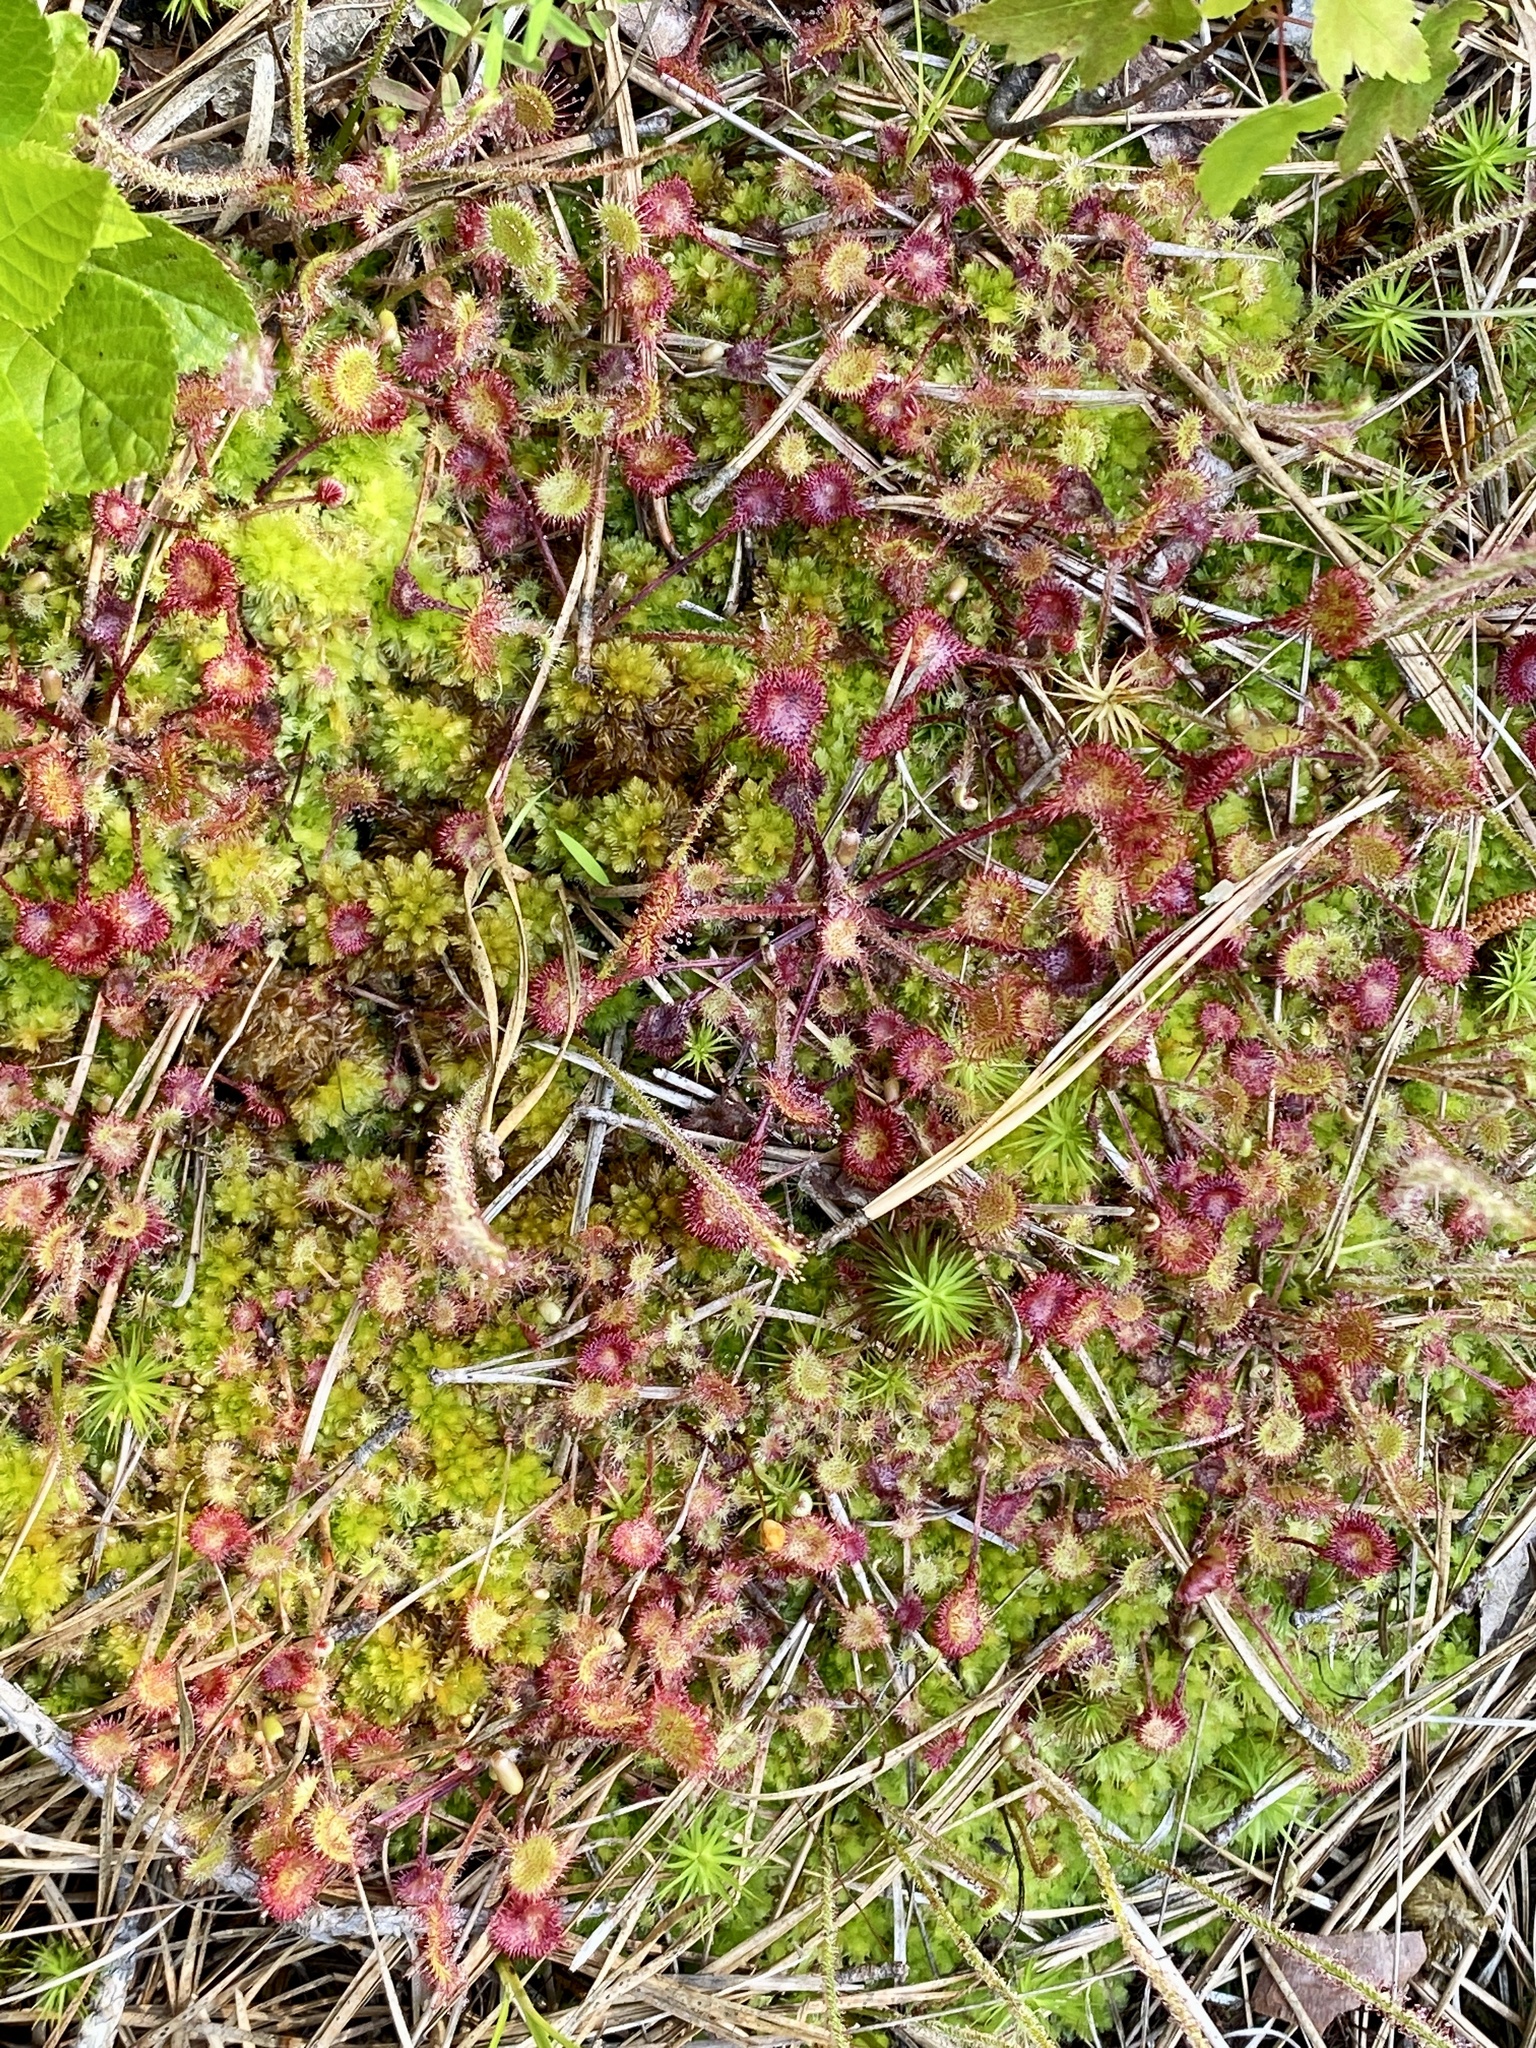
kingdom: Plantae
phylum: Tracheophyta
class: Magnoliopsida
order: Caryophyllales
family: Droseraceae
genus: Drosera
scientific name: Drosera rotundifolia
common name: Round-leaved sundew
